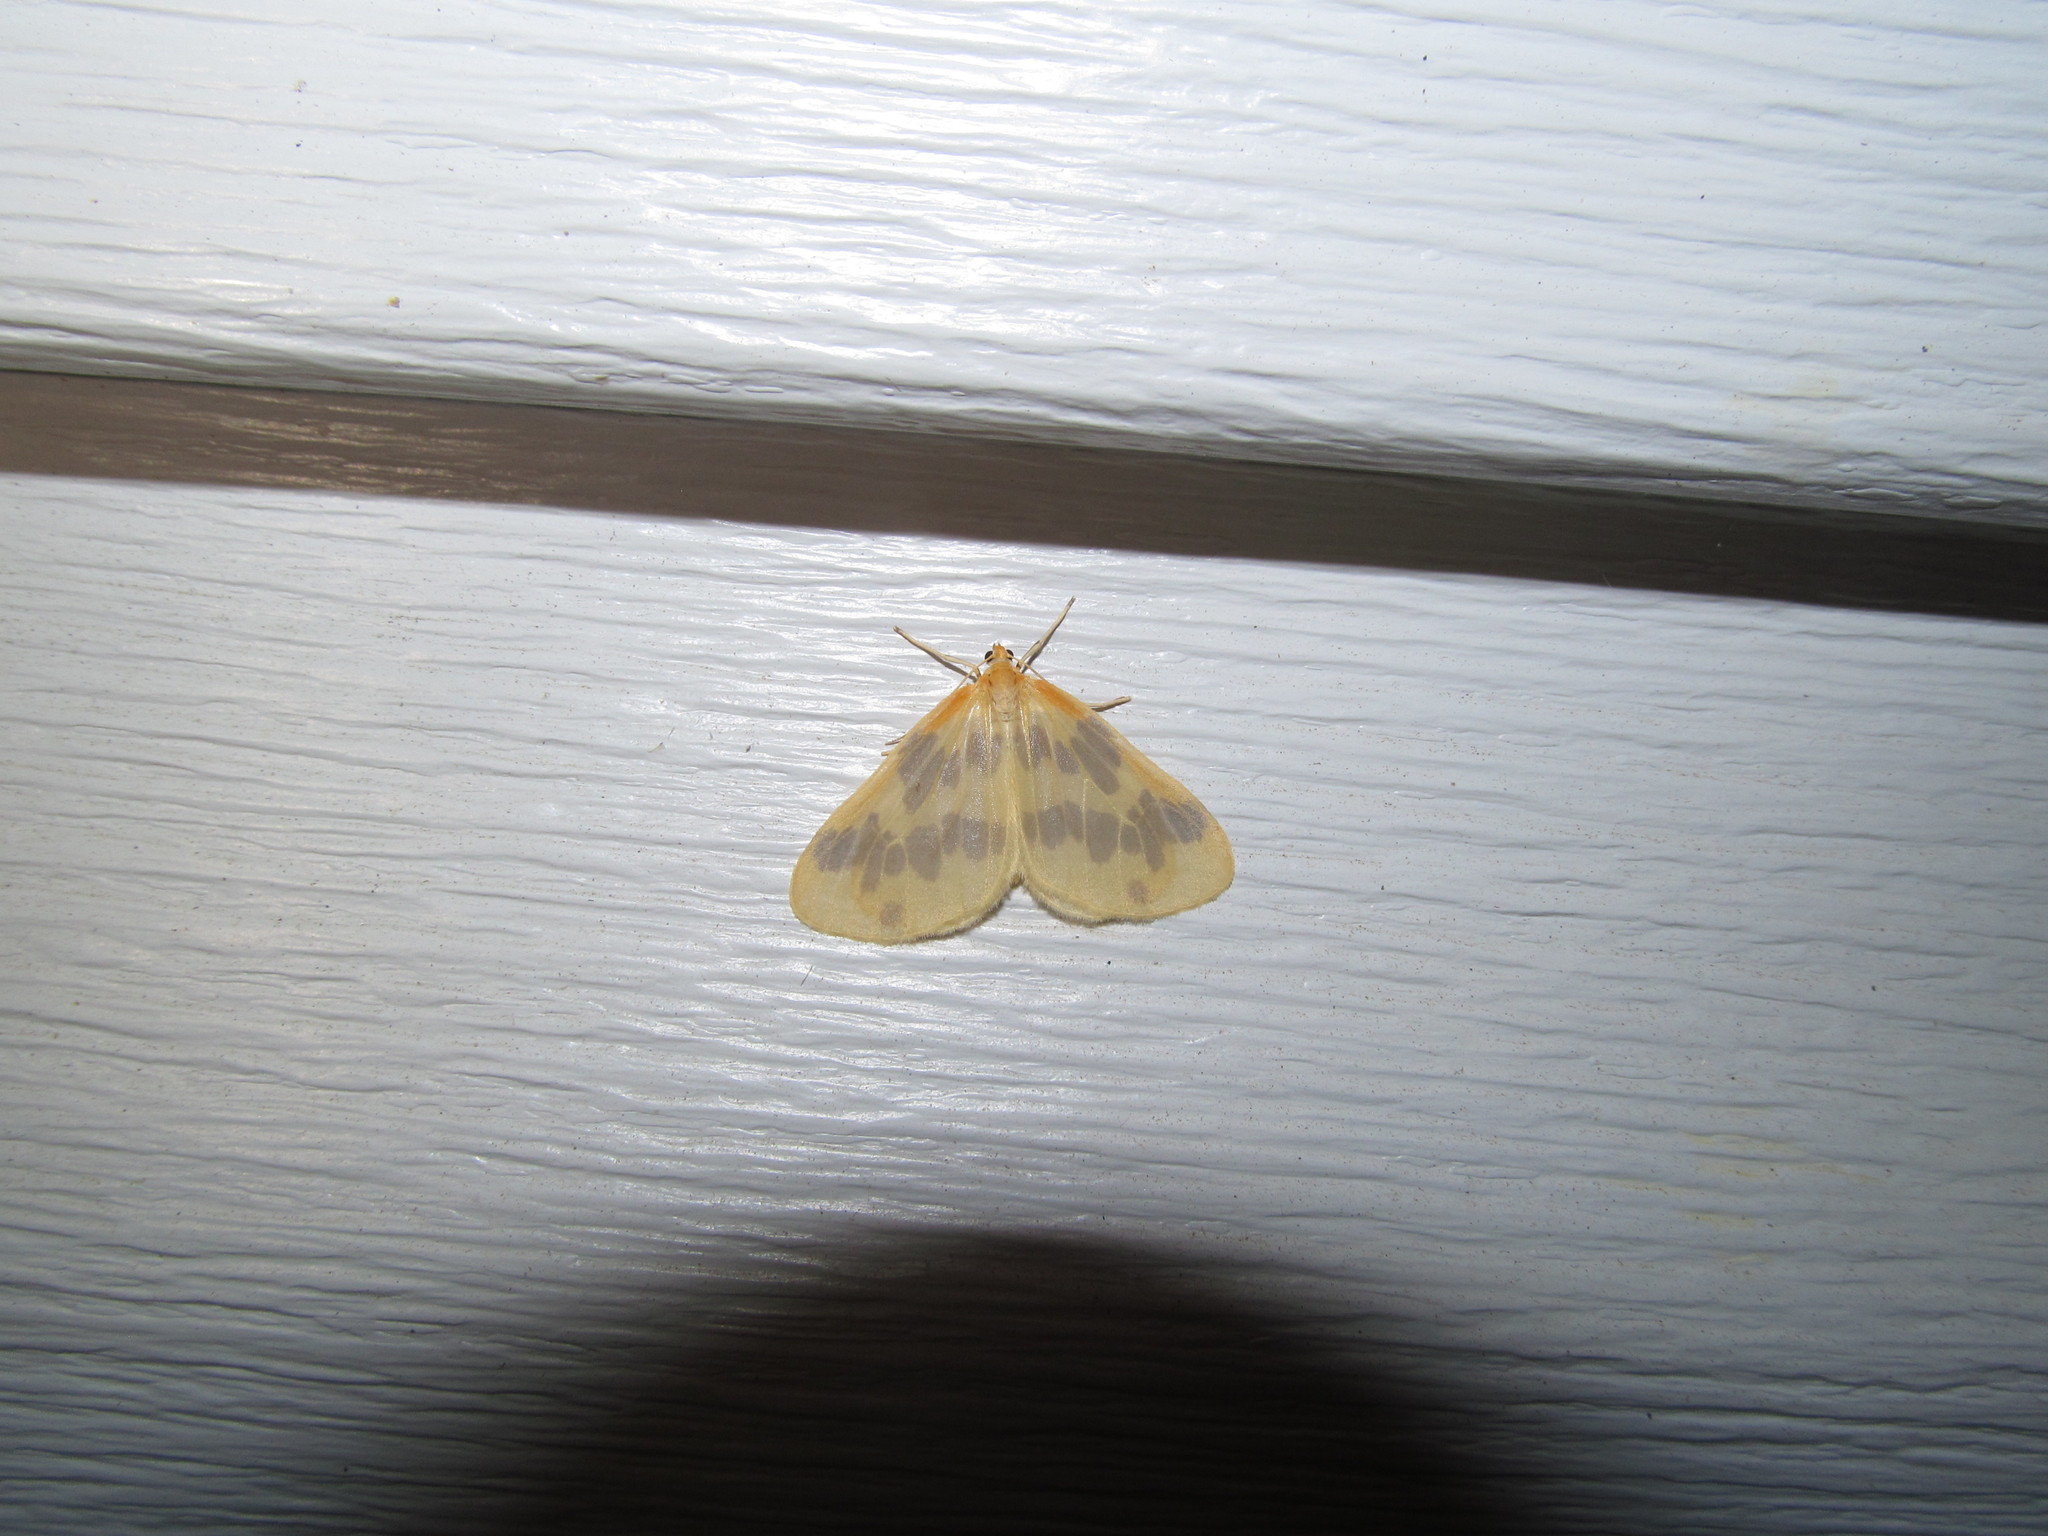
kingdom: Animalia
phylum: Arthropoda
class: Insecta
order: Lepidoptera
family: Geometridae
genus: Eubaphe
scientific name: Eubaphe mendica
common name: Beggar
